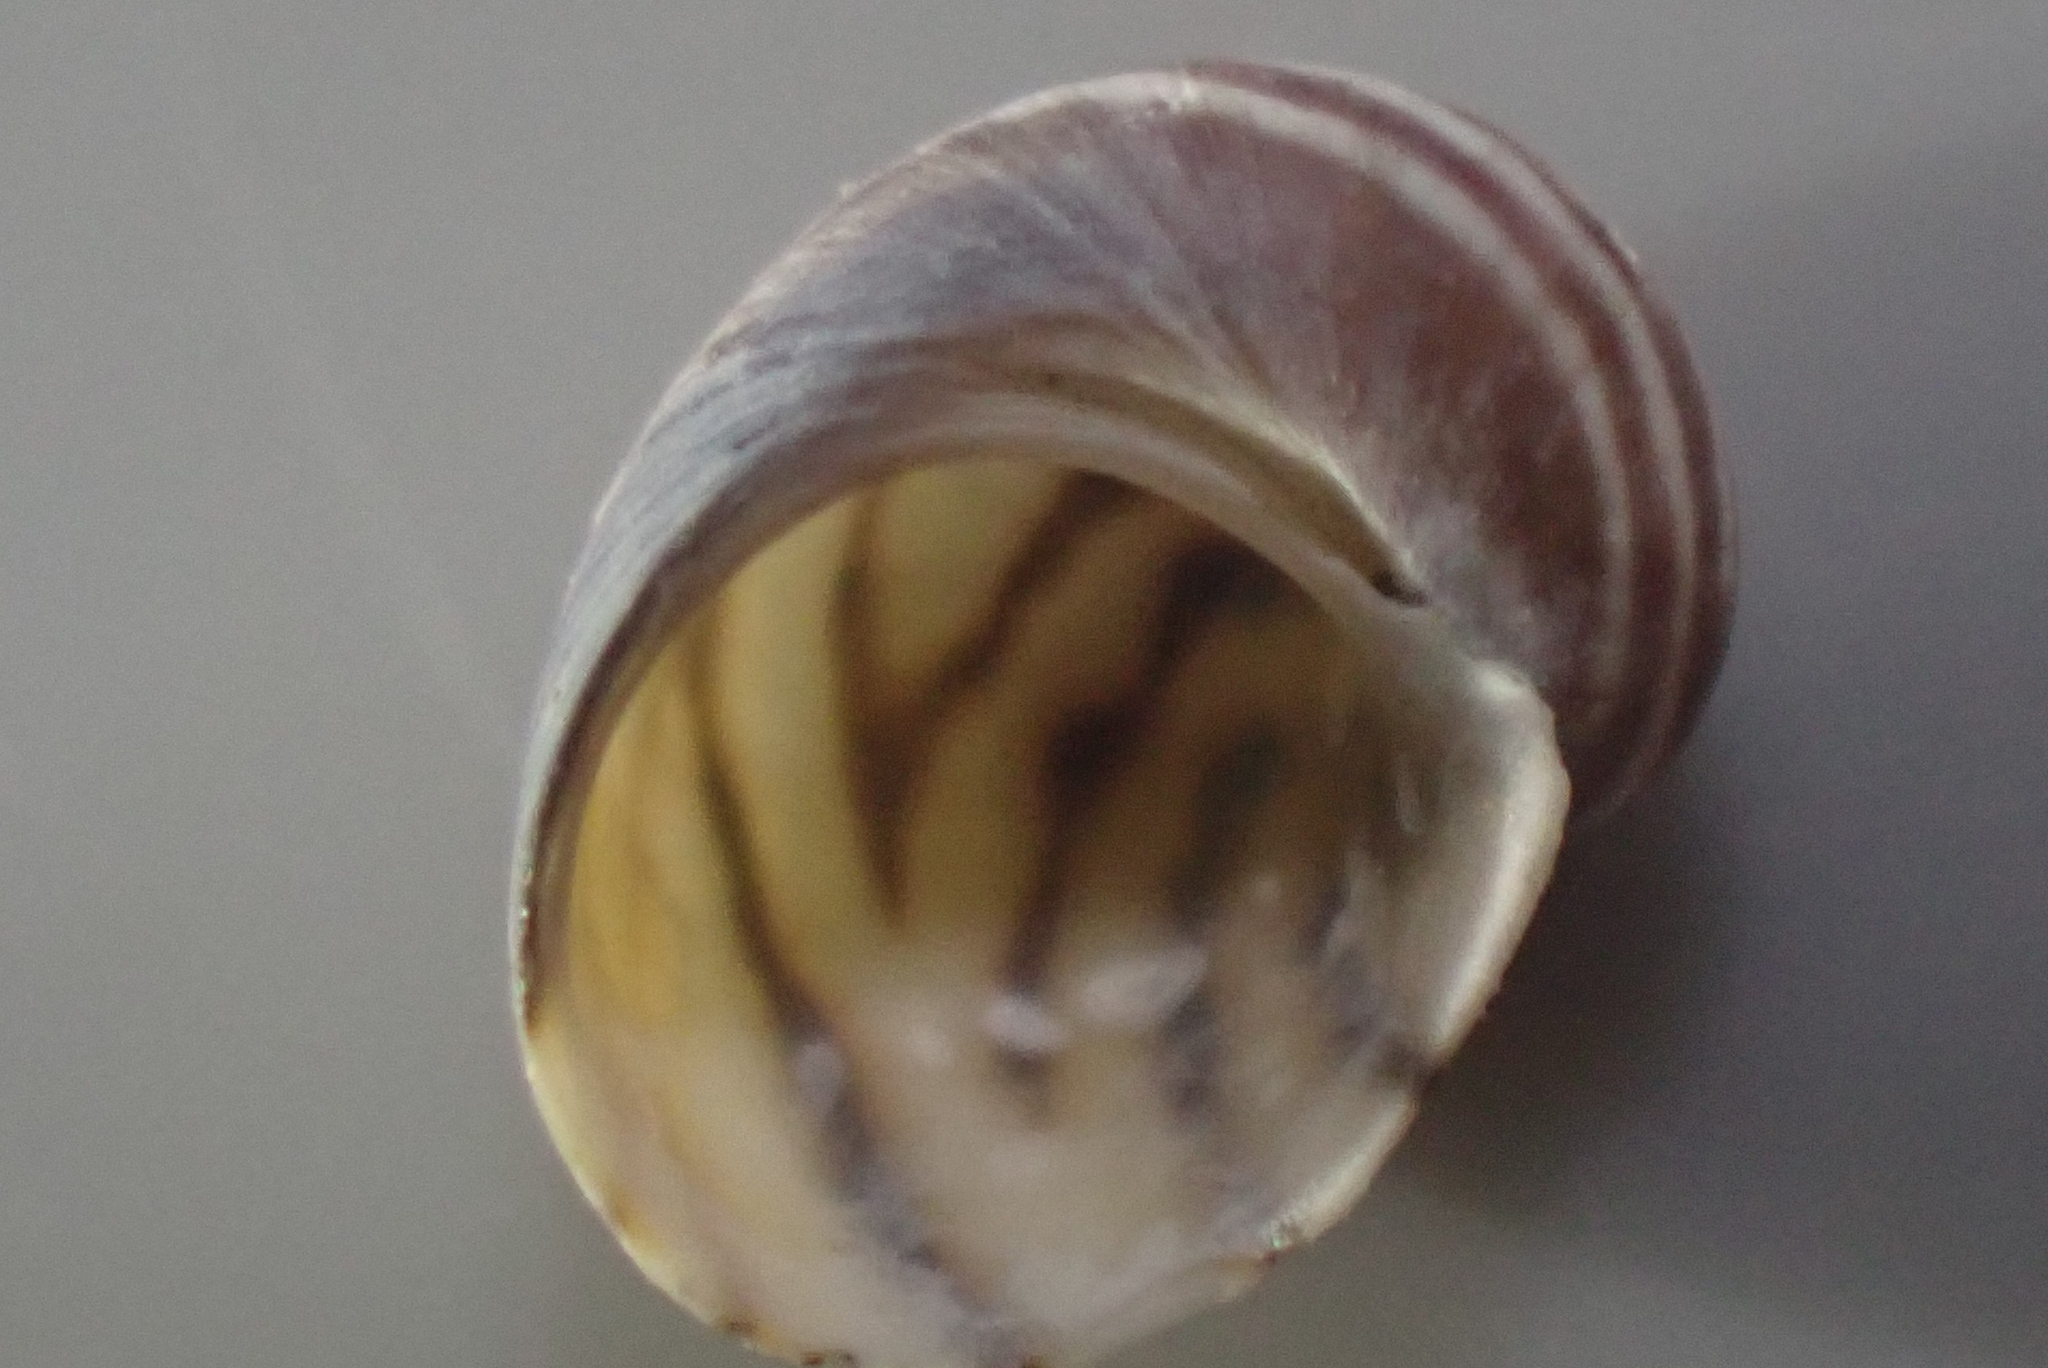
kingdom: Animalia
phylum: Mollusca
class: Gastropoda
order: Trochida
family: Trochidae
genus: Fossarina
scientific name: Fossarina rimata
